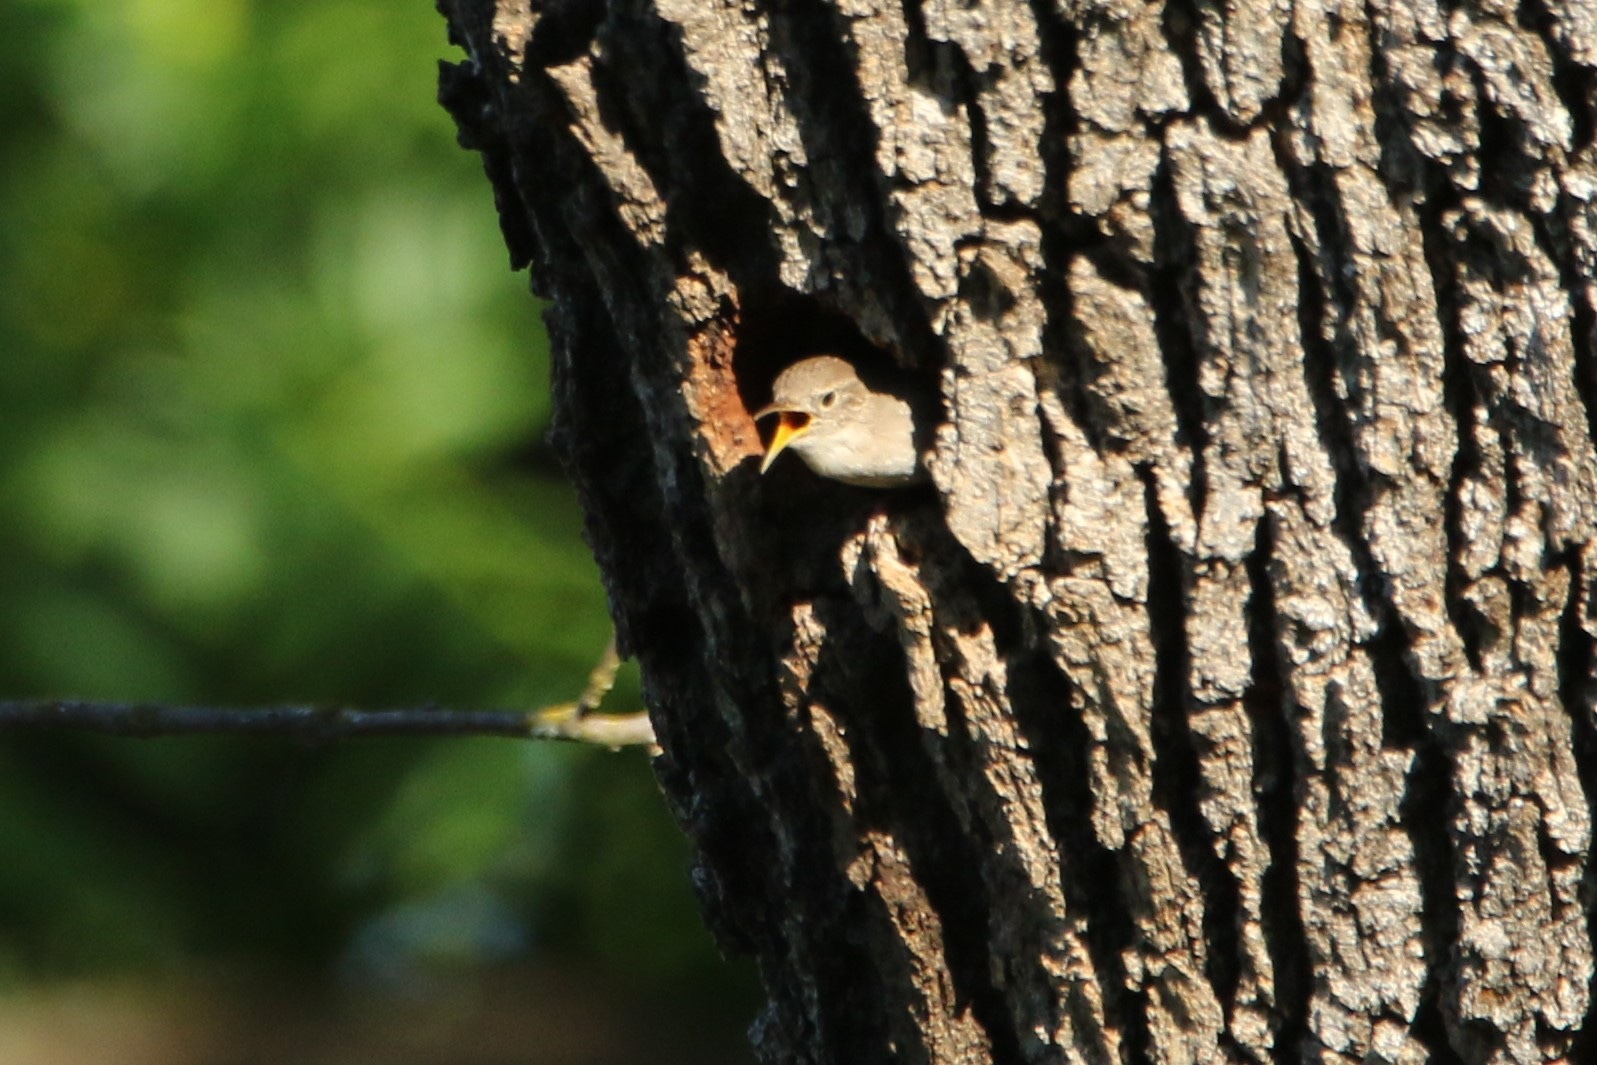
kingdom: Animalia
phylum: Chordata
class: Aves
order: Passeriformes
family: Troglodytidae
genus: Troglodytes
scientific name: Troglodytes aedon
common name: House wren
